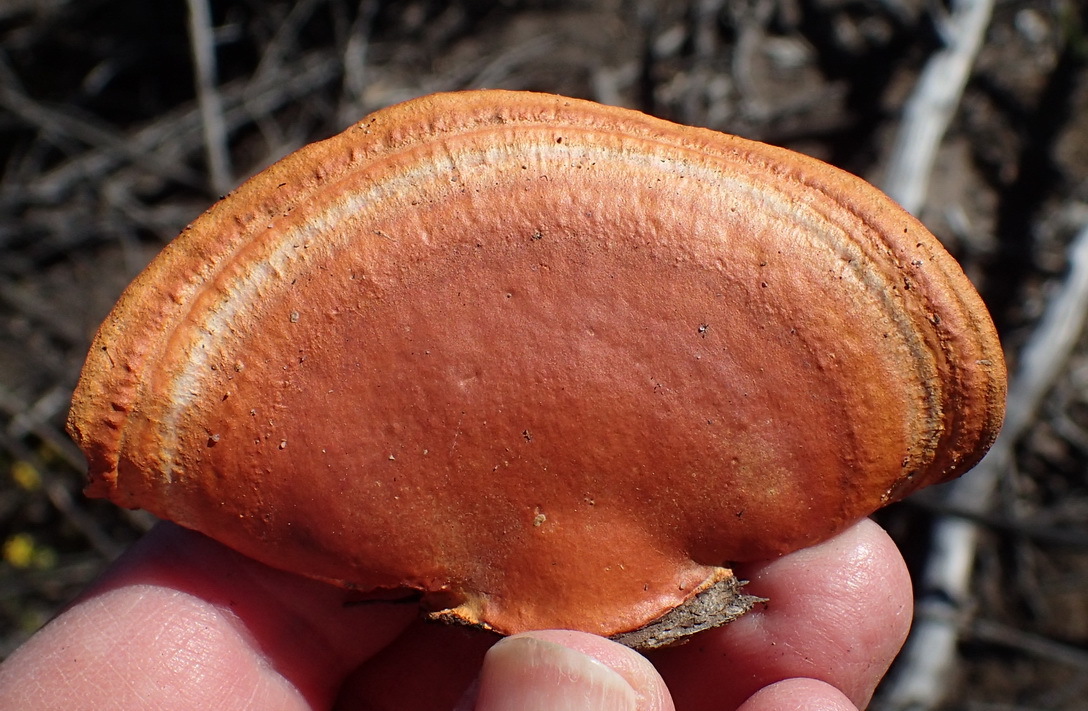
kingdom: Fungi
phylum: Basidiomycota
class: Agaricomycetes
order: Polyporales
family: Polyporaceae
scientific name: Polyporaceae
